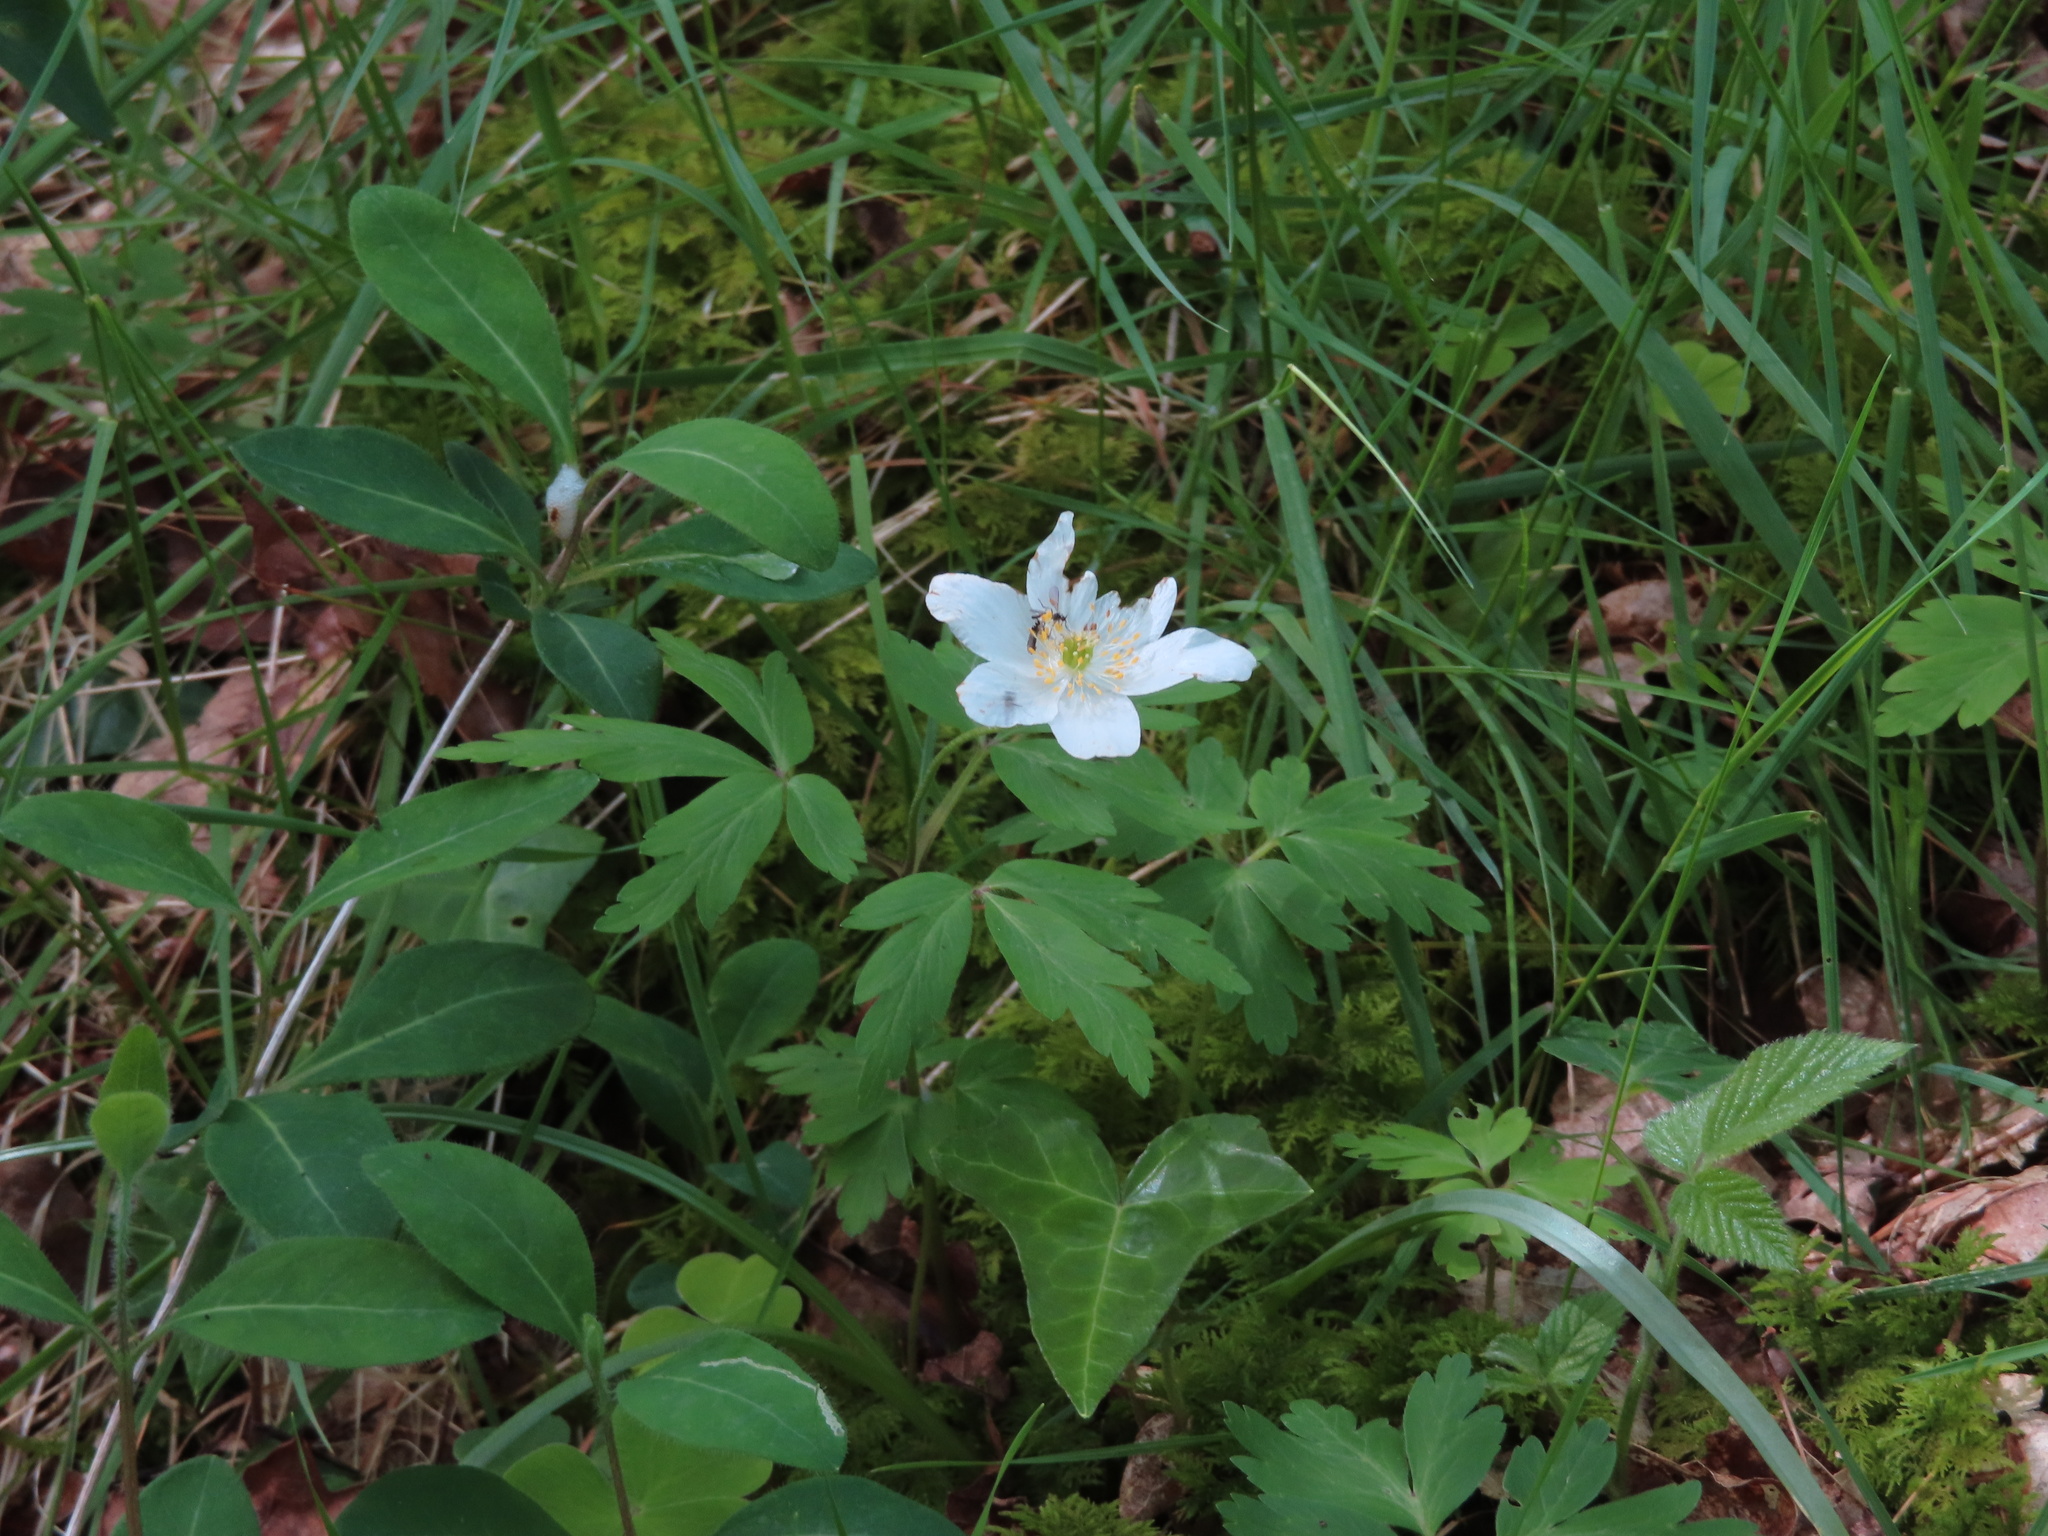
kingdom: Plantae
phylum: Tracheophyta
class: Magnoliopsida
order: Ranunculales
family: Ranunculaceae
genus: Anemone
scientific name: Anemone nemorosa
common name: Wood anemone
